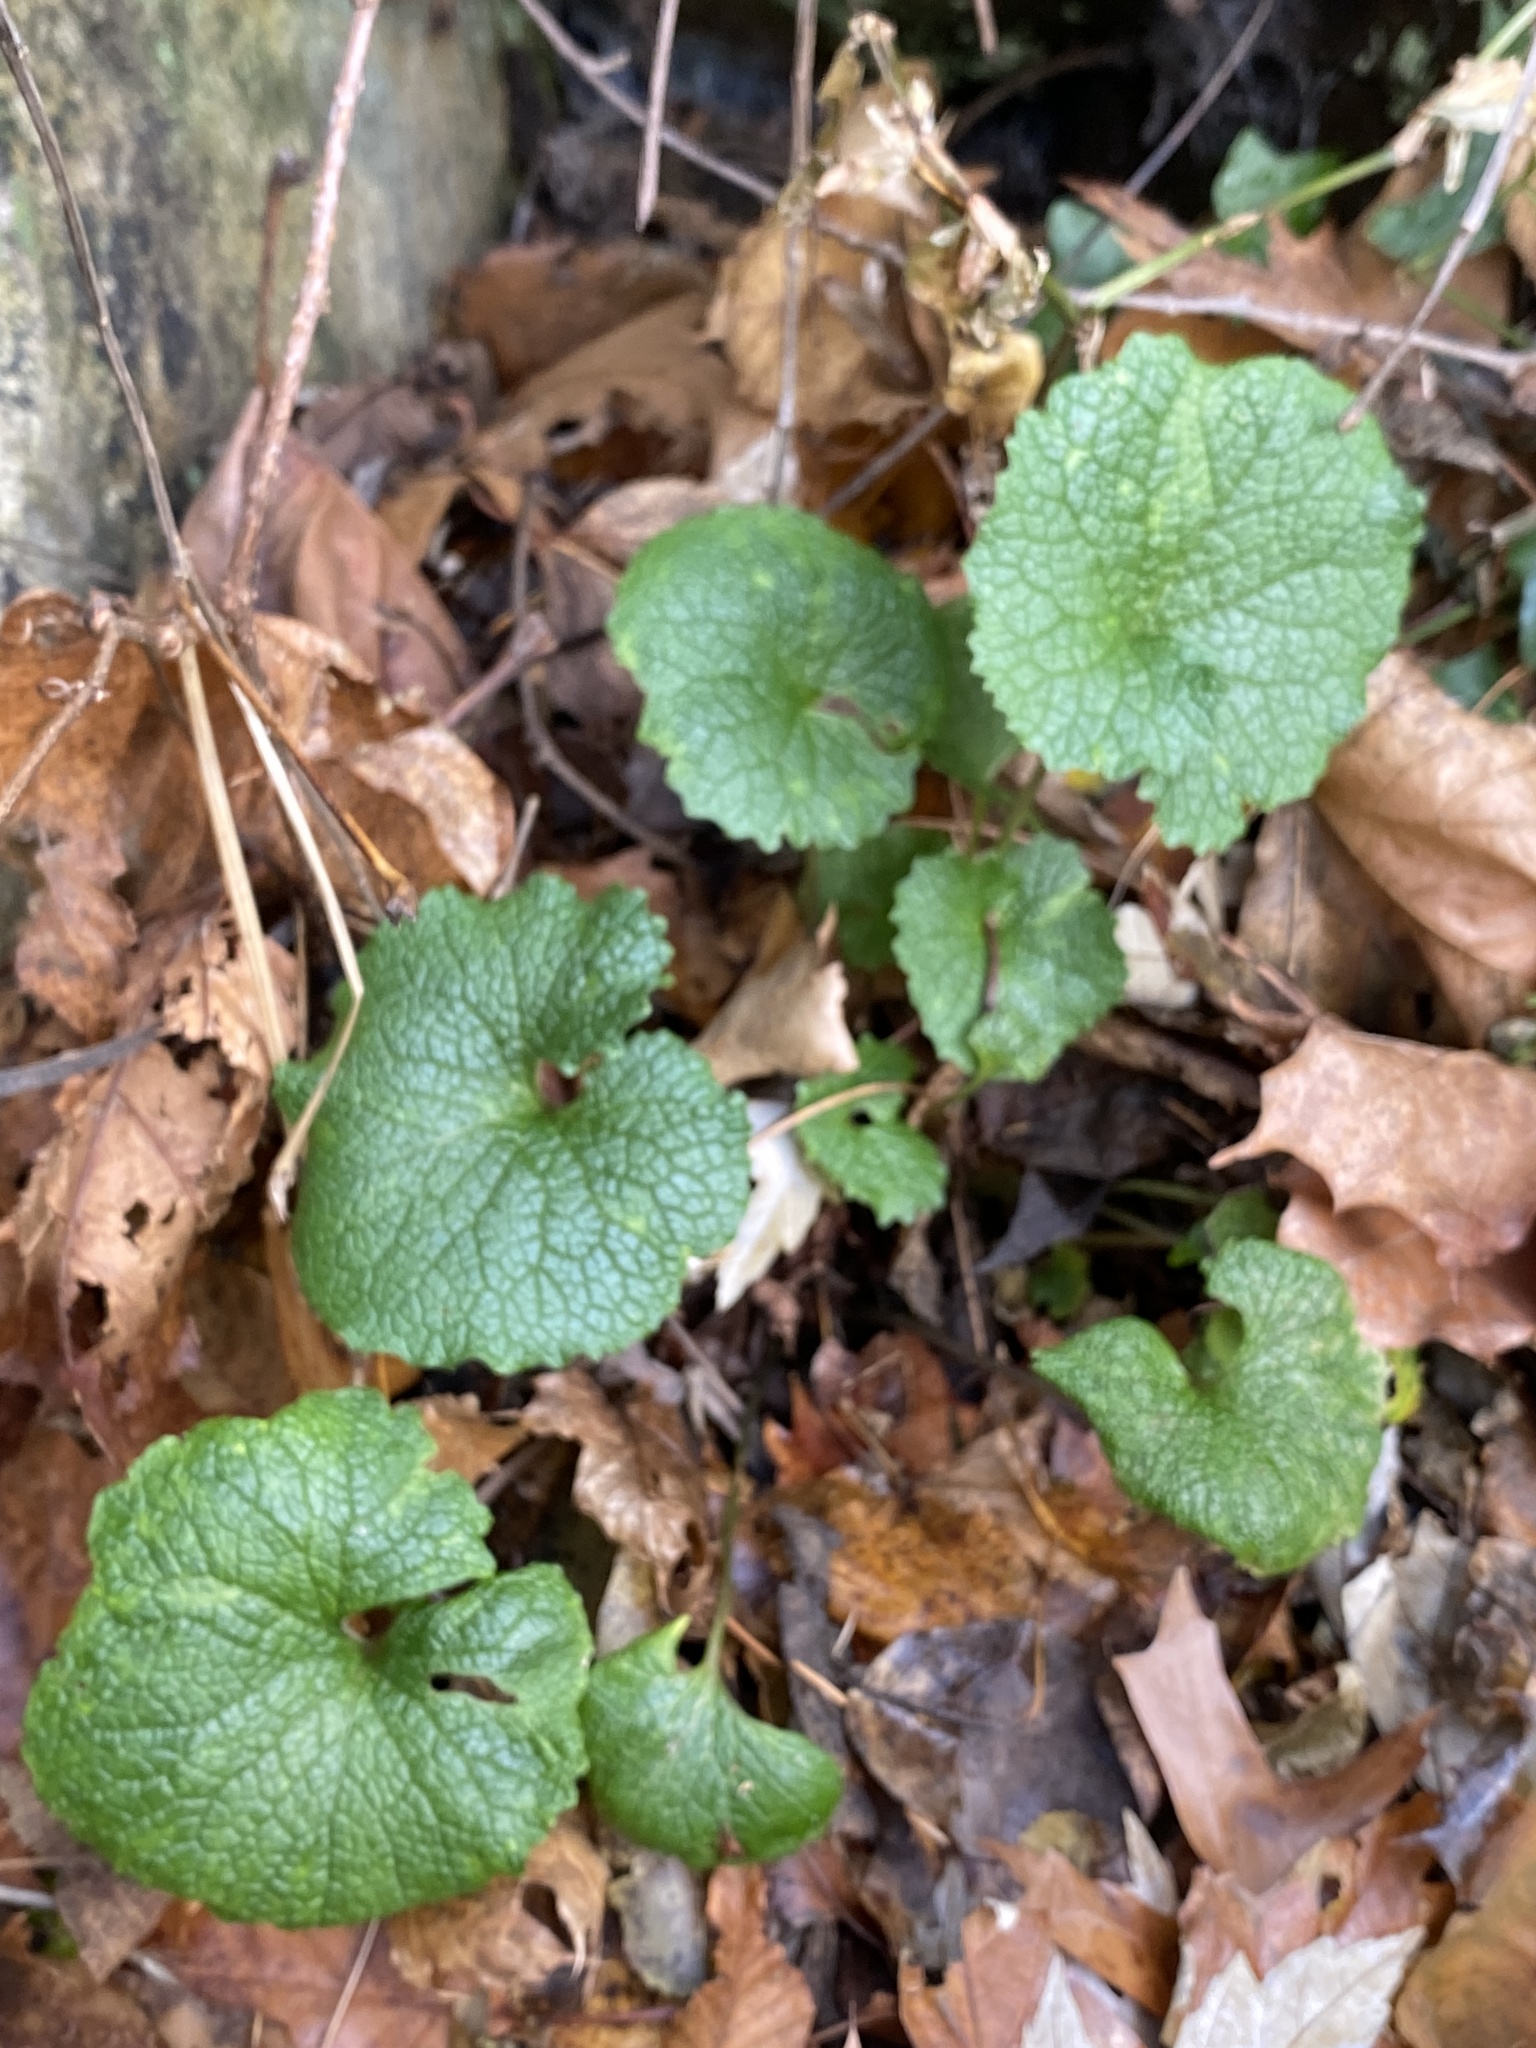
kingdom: Plantae
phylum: Tracheophyta
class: Magnoliopsida
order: Brassicales
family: Brassicaceae
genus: Alliaria
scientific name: Alliaria petiolata
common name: Garlic mustard
